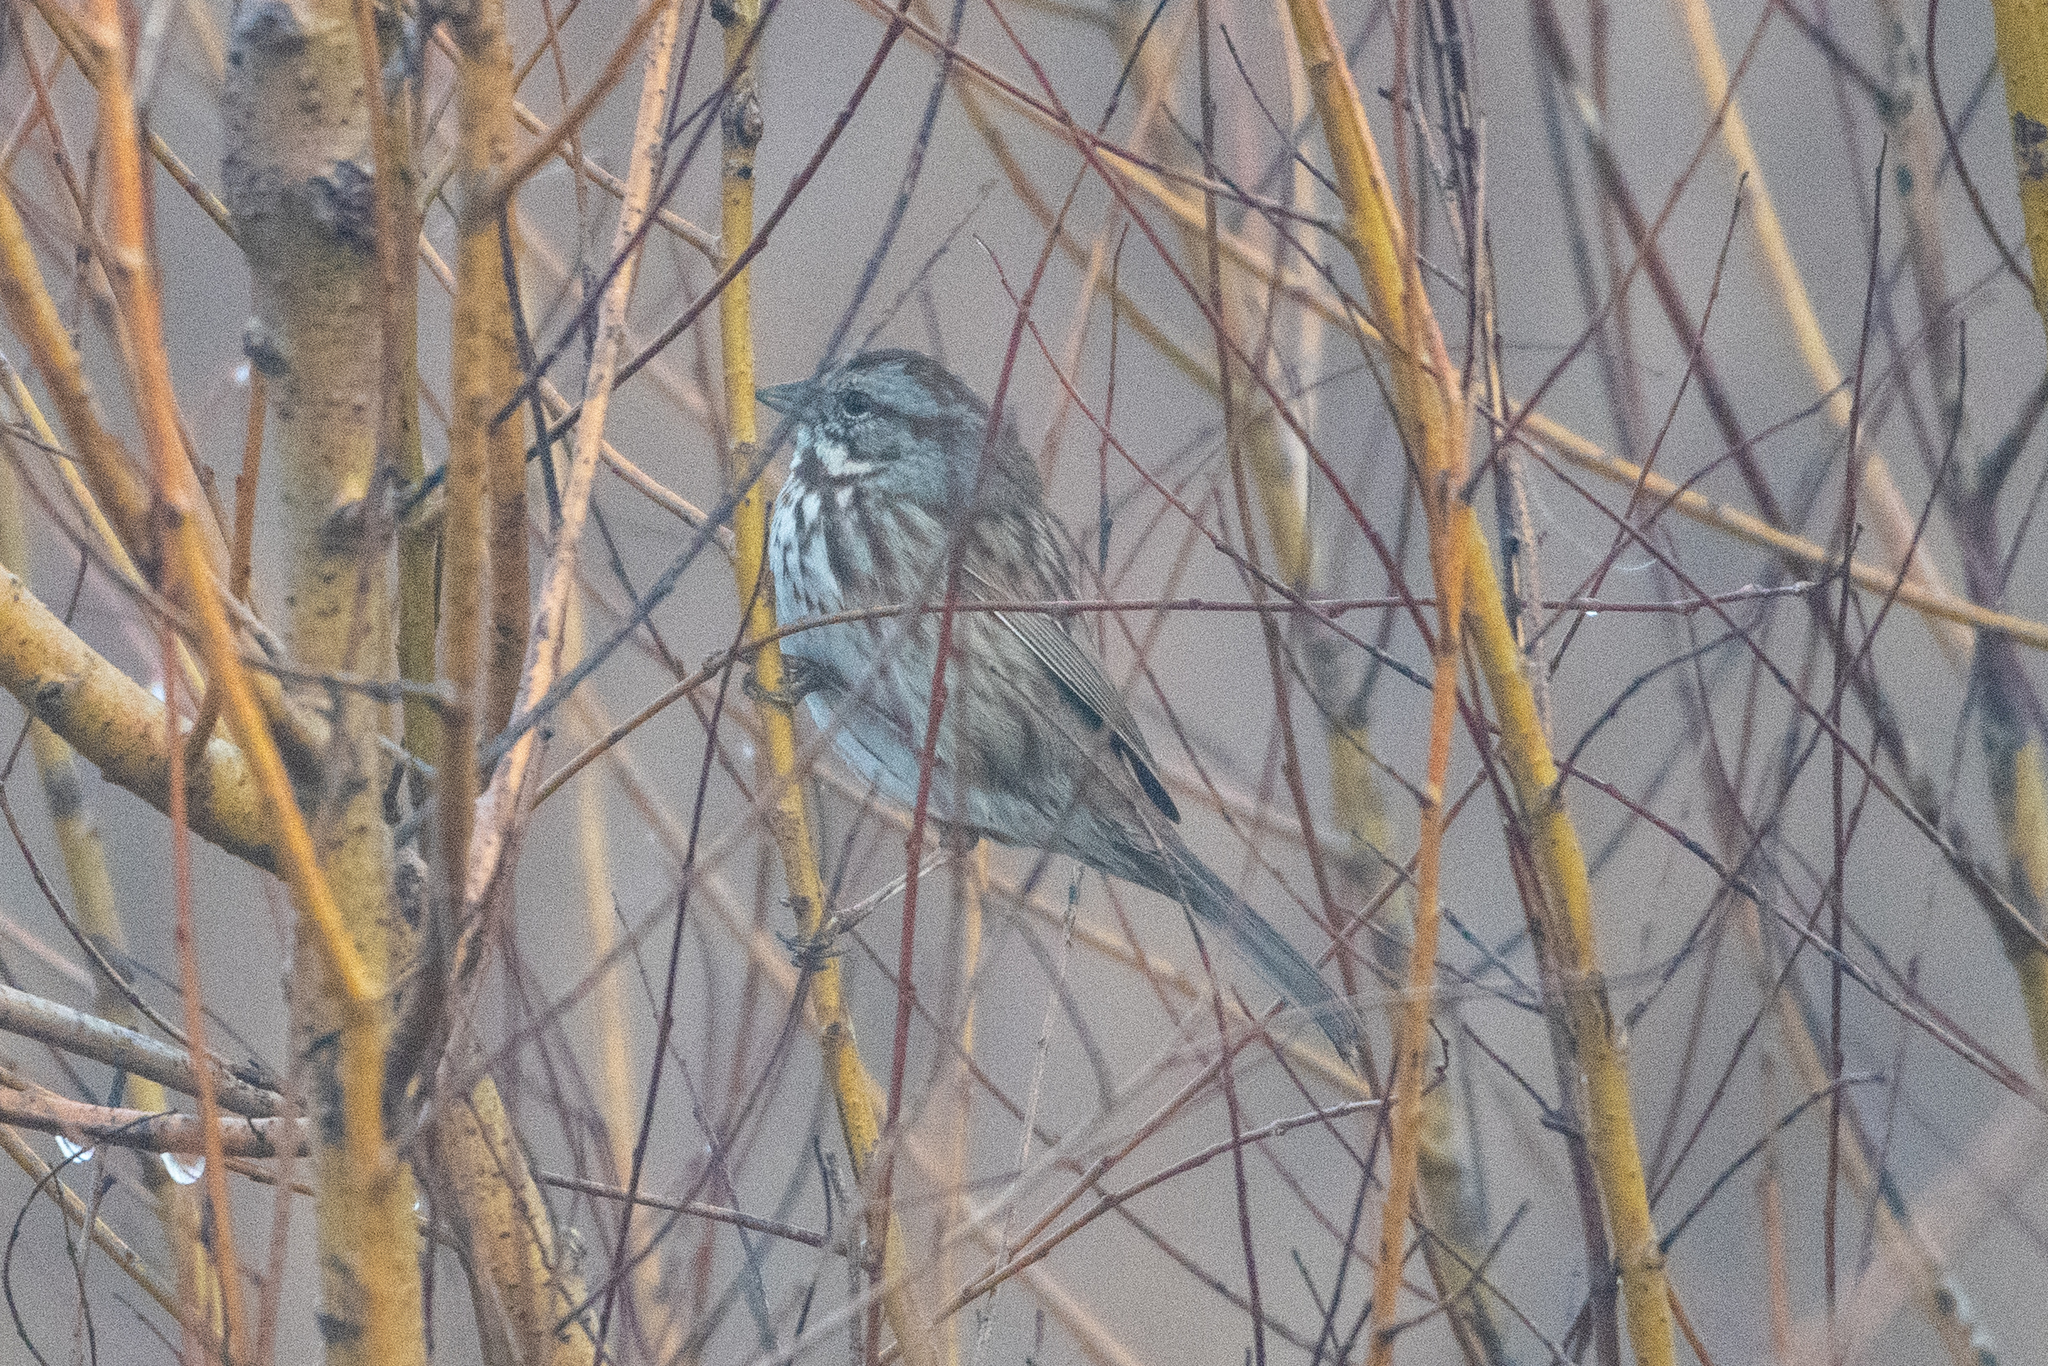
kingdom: Animalia
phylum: Chordata
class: Aves
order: Passeriformes
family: Passerellidae
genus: Melospiza
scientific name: Melospiza melodia
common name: Song sparrow
